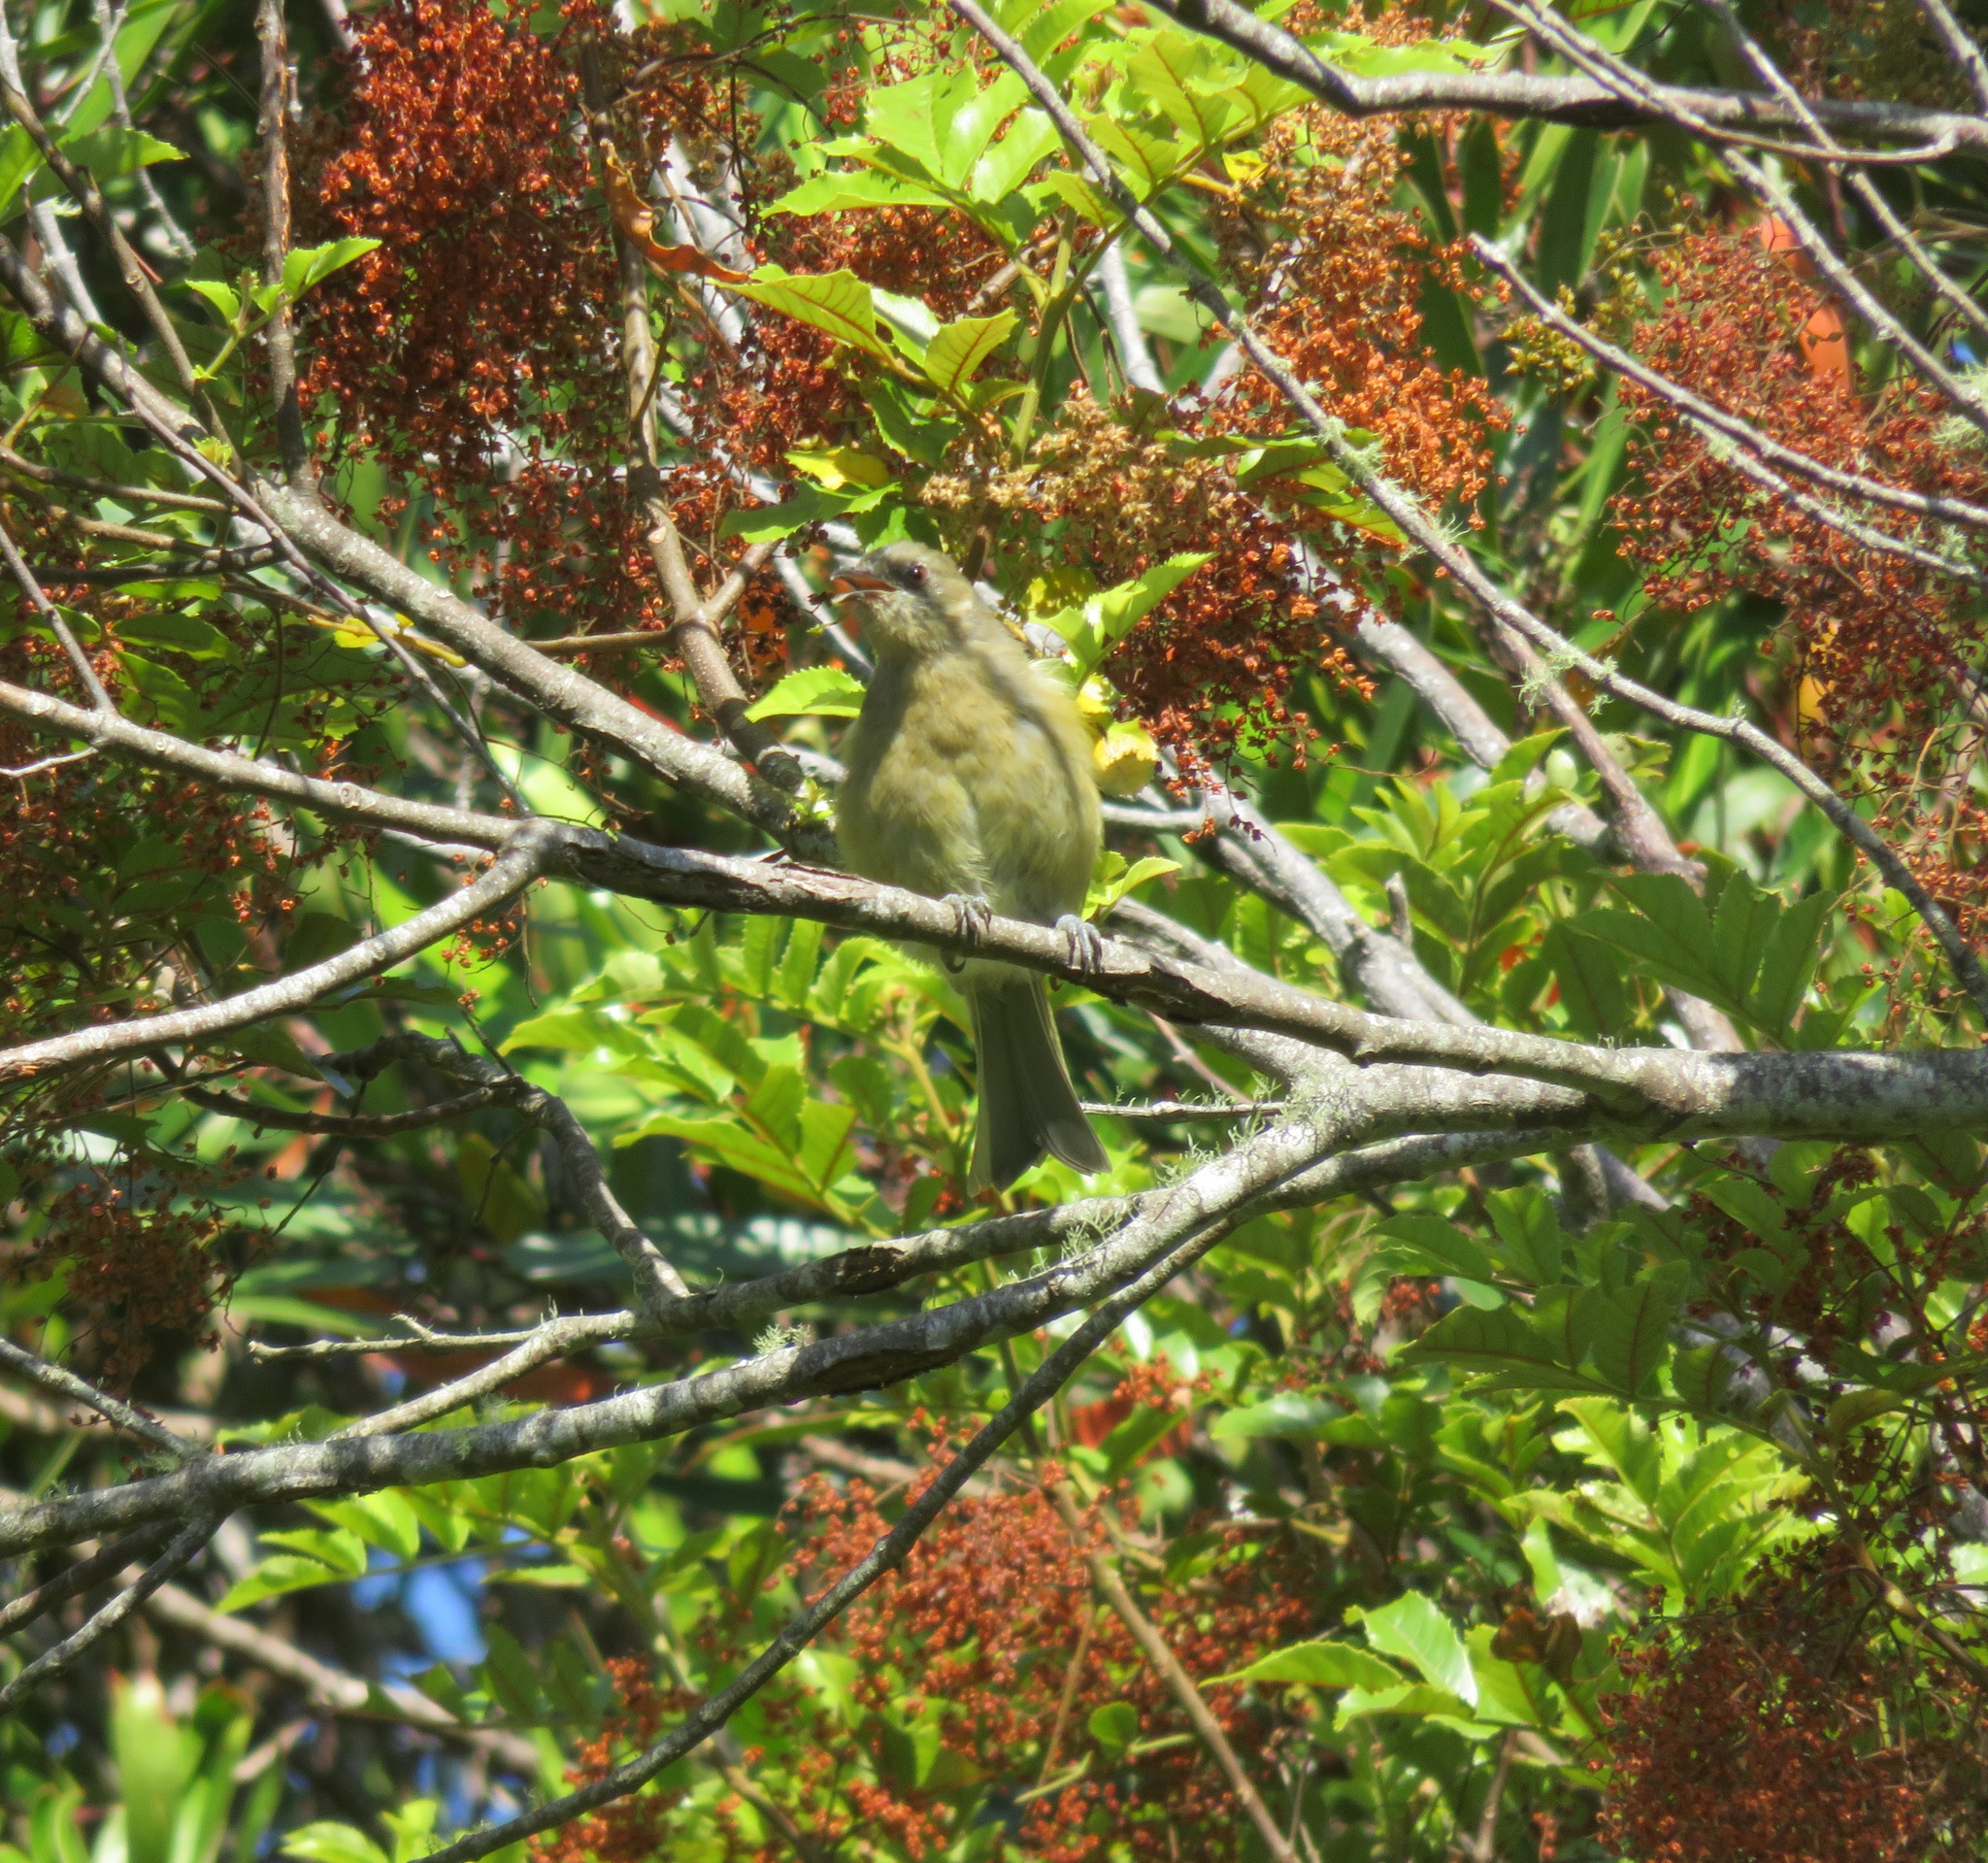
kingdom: Animalia
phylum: Chordata
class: Aves
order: Passeriformes
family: Meliphagidae
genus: Anthornis
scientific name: Anthornis melanura
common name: New zealand bellbird
